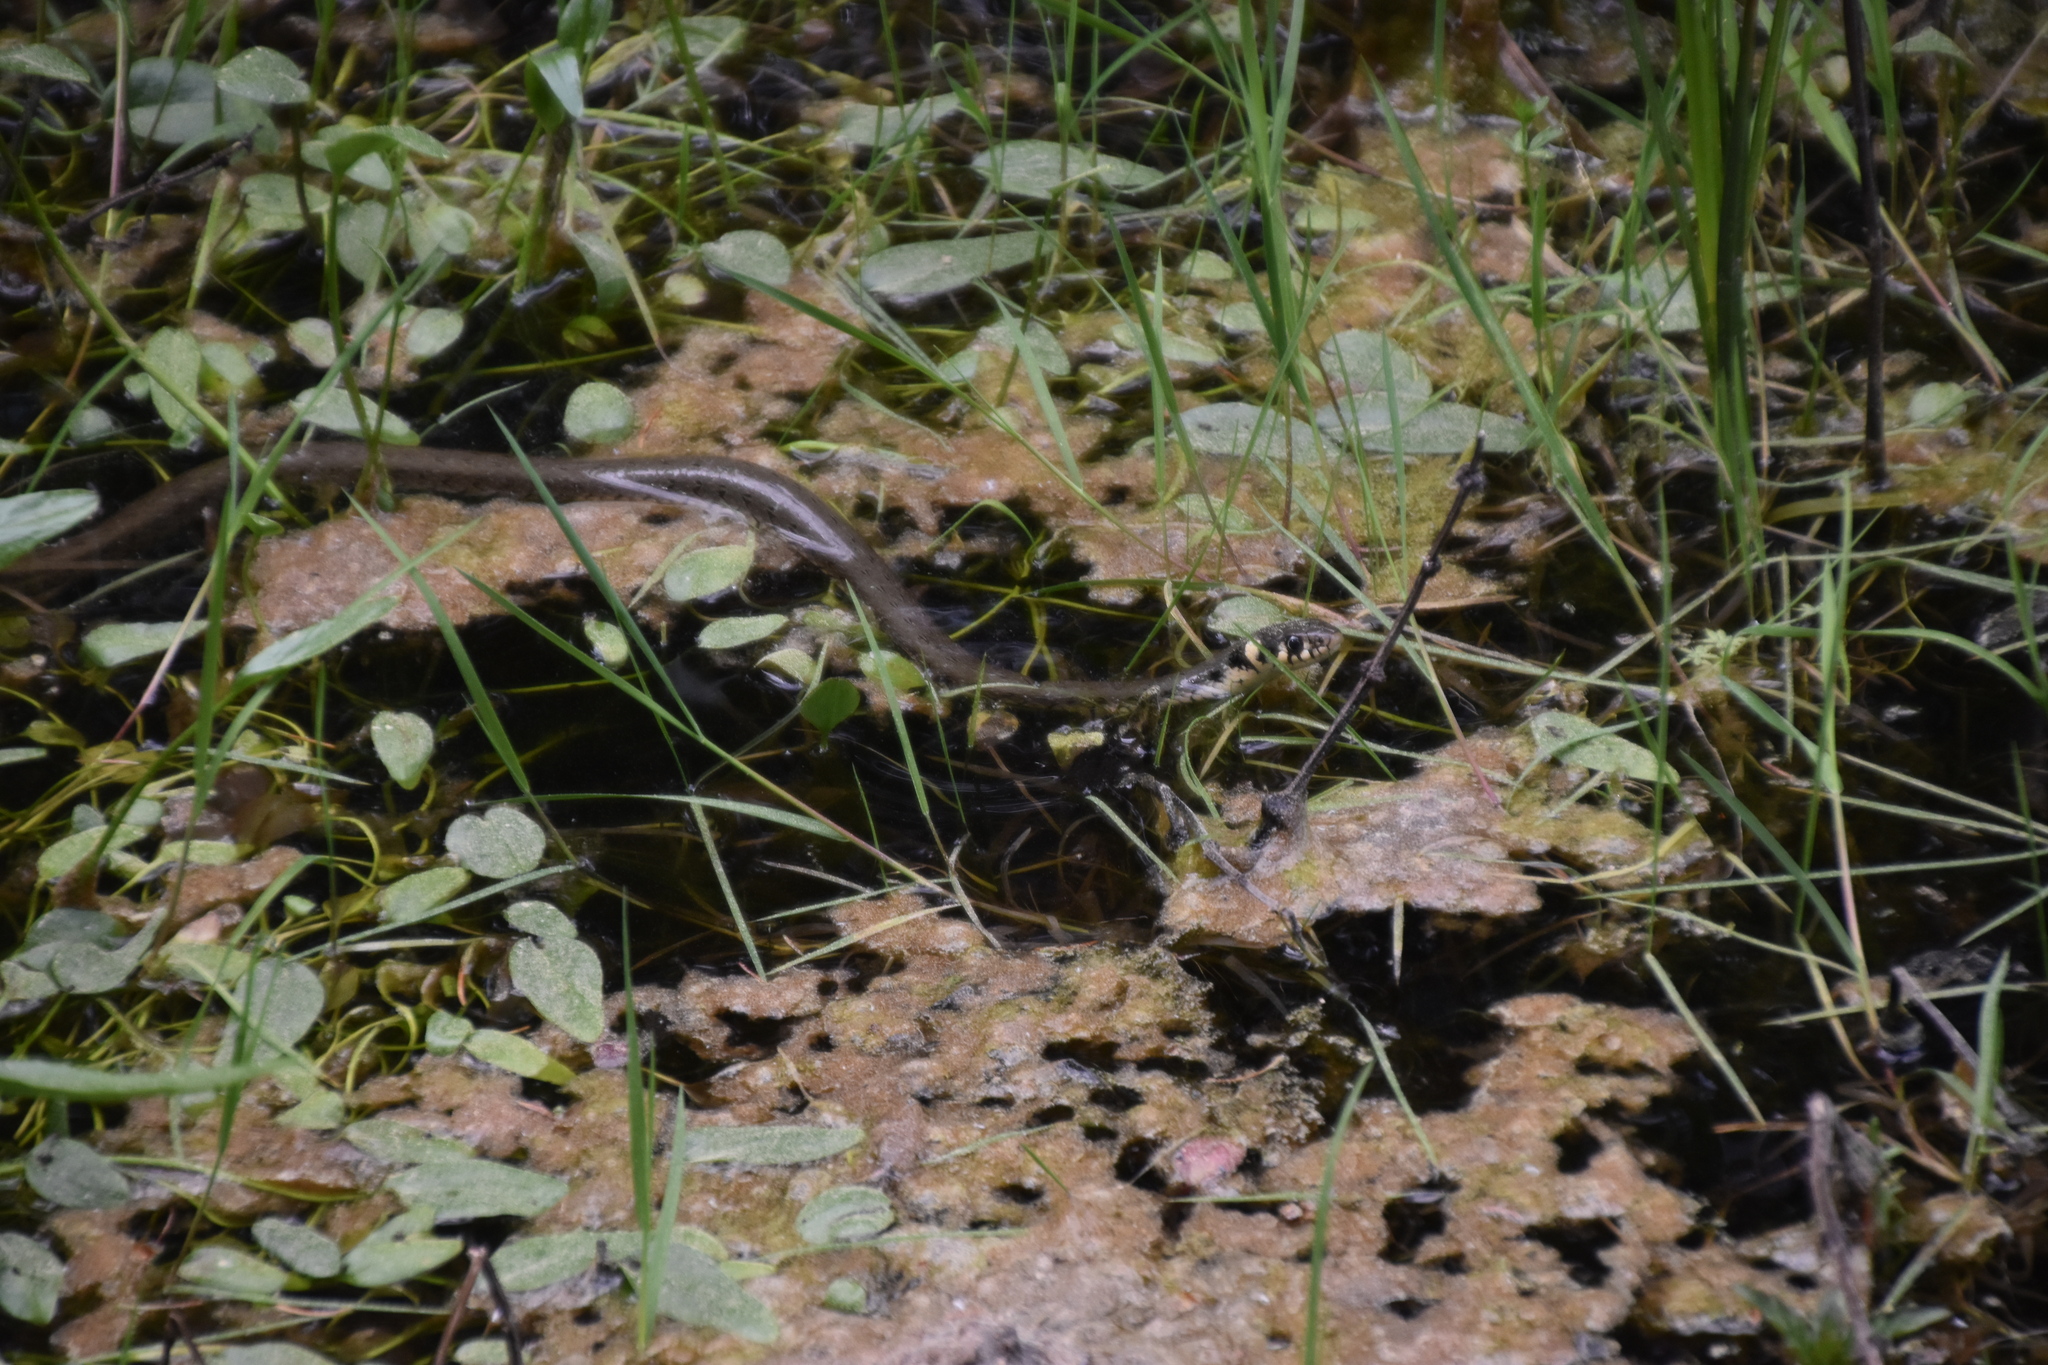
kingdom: Animalia
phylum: Chordata
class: Squamata
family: Colubridae
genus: Natrix
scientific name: Natrix natrix
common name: Grass snake
